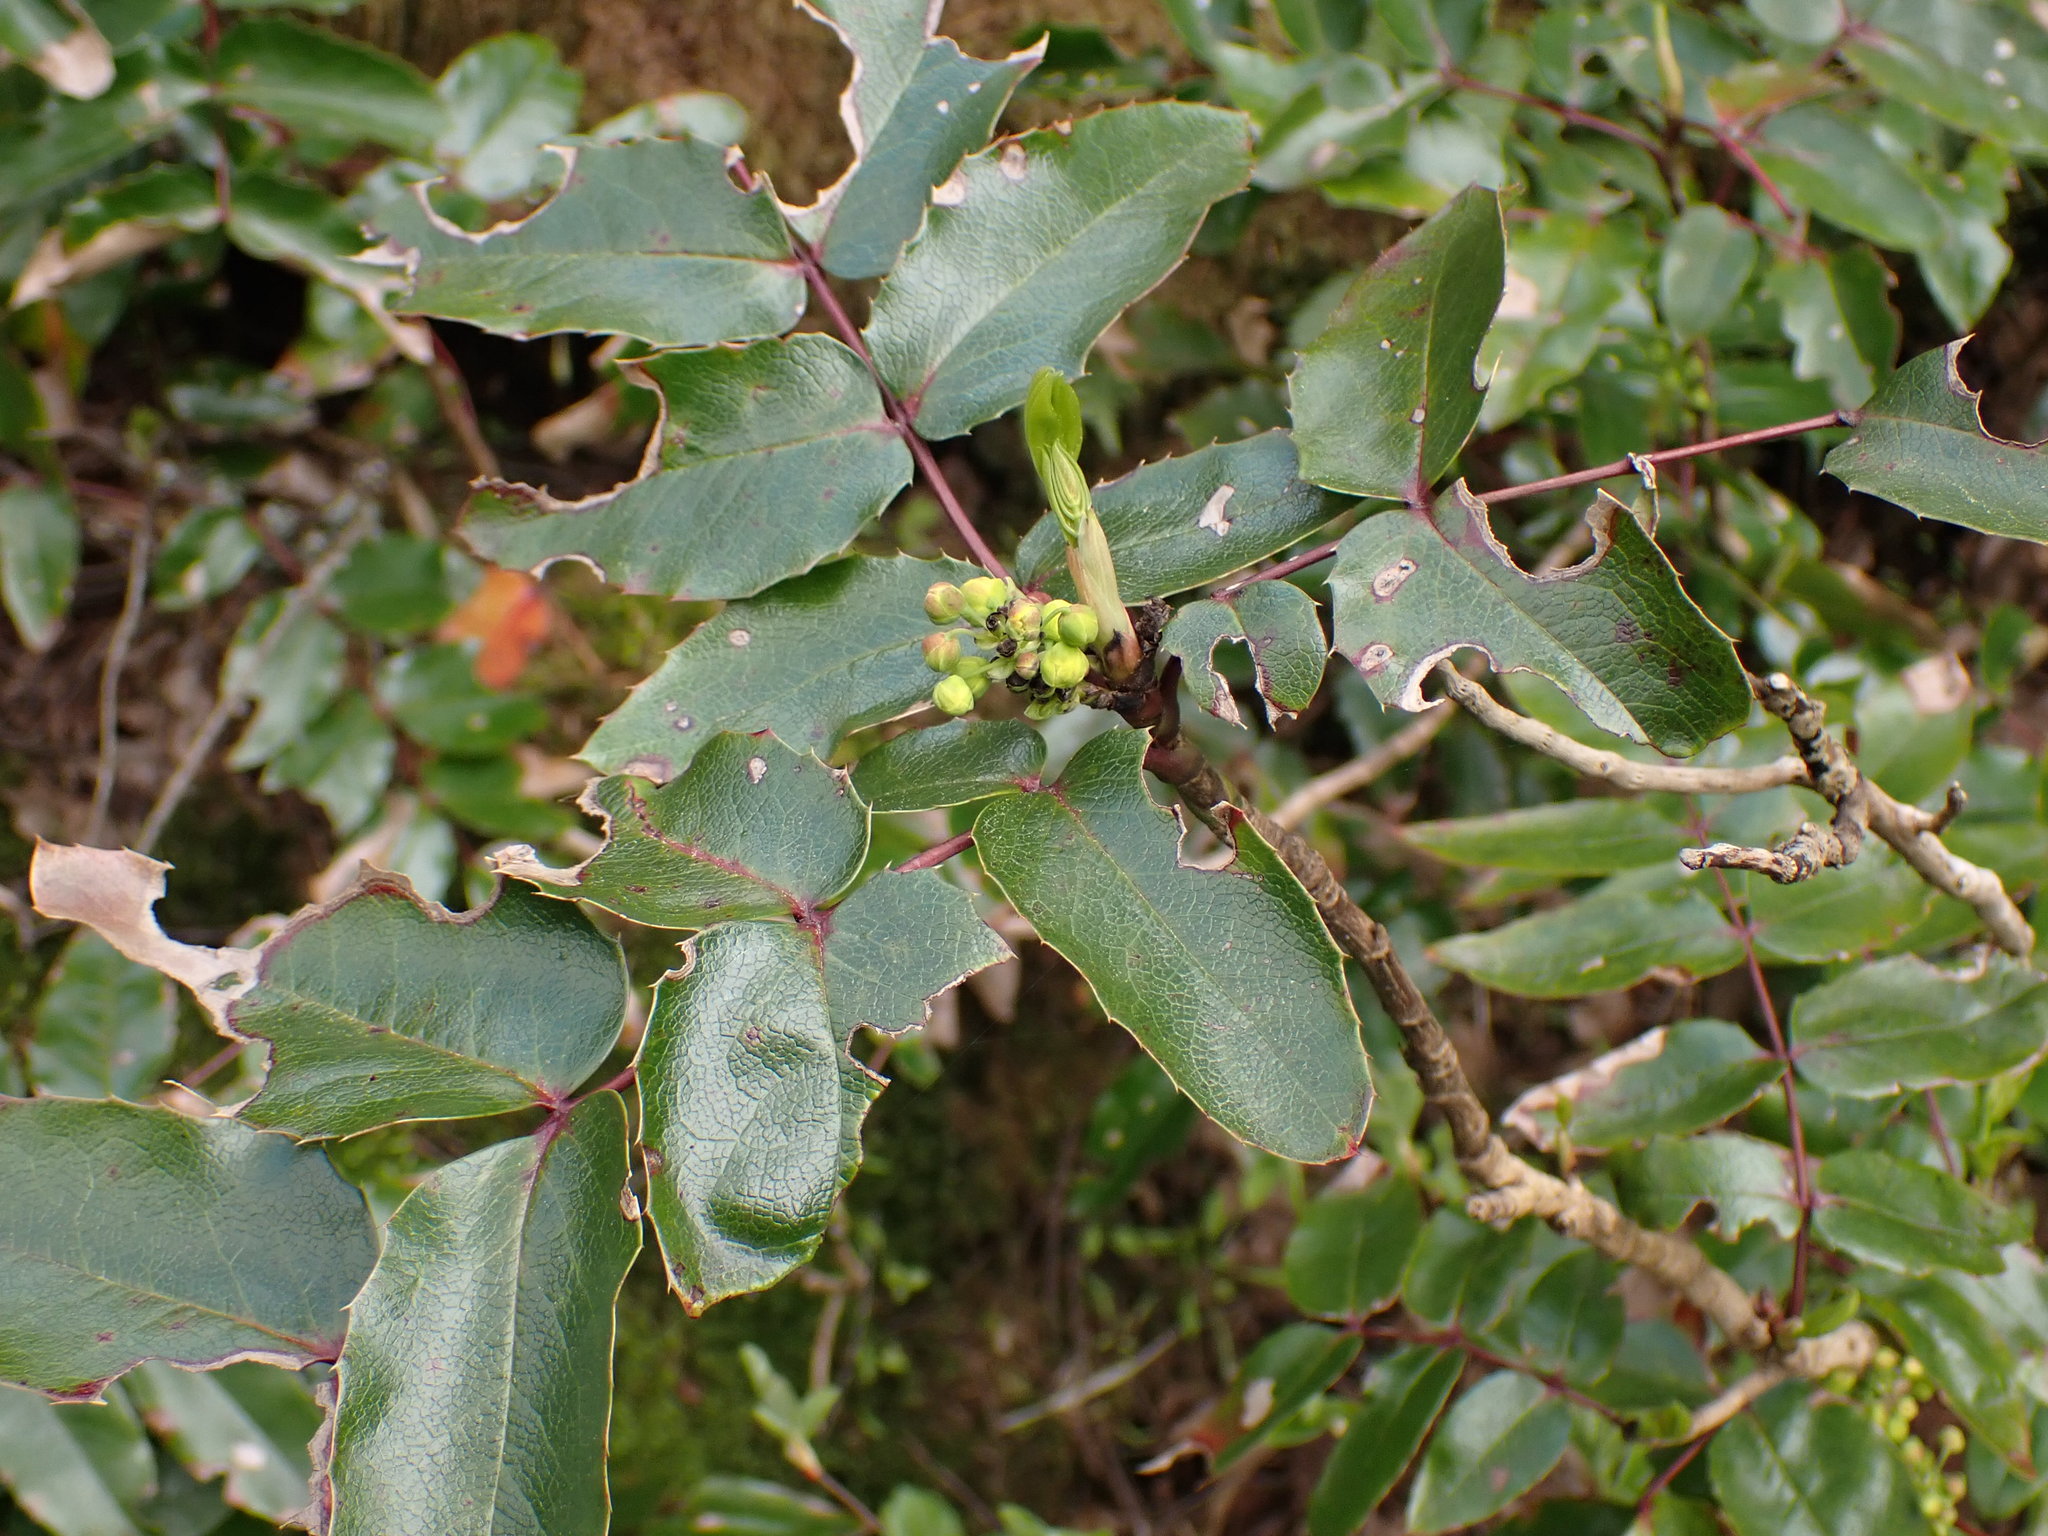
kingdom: Plantae
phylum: Tracheophyta
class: Magnoliopsida
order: Ranunculales
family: Berberidaceae
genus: Mahonia
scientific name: Mahonia aquifolium
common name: Oregon-grape
